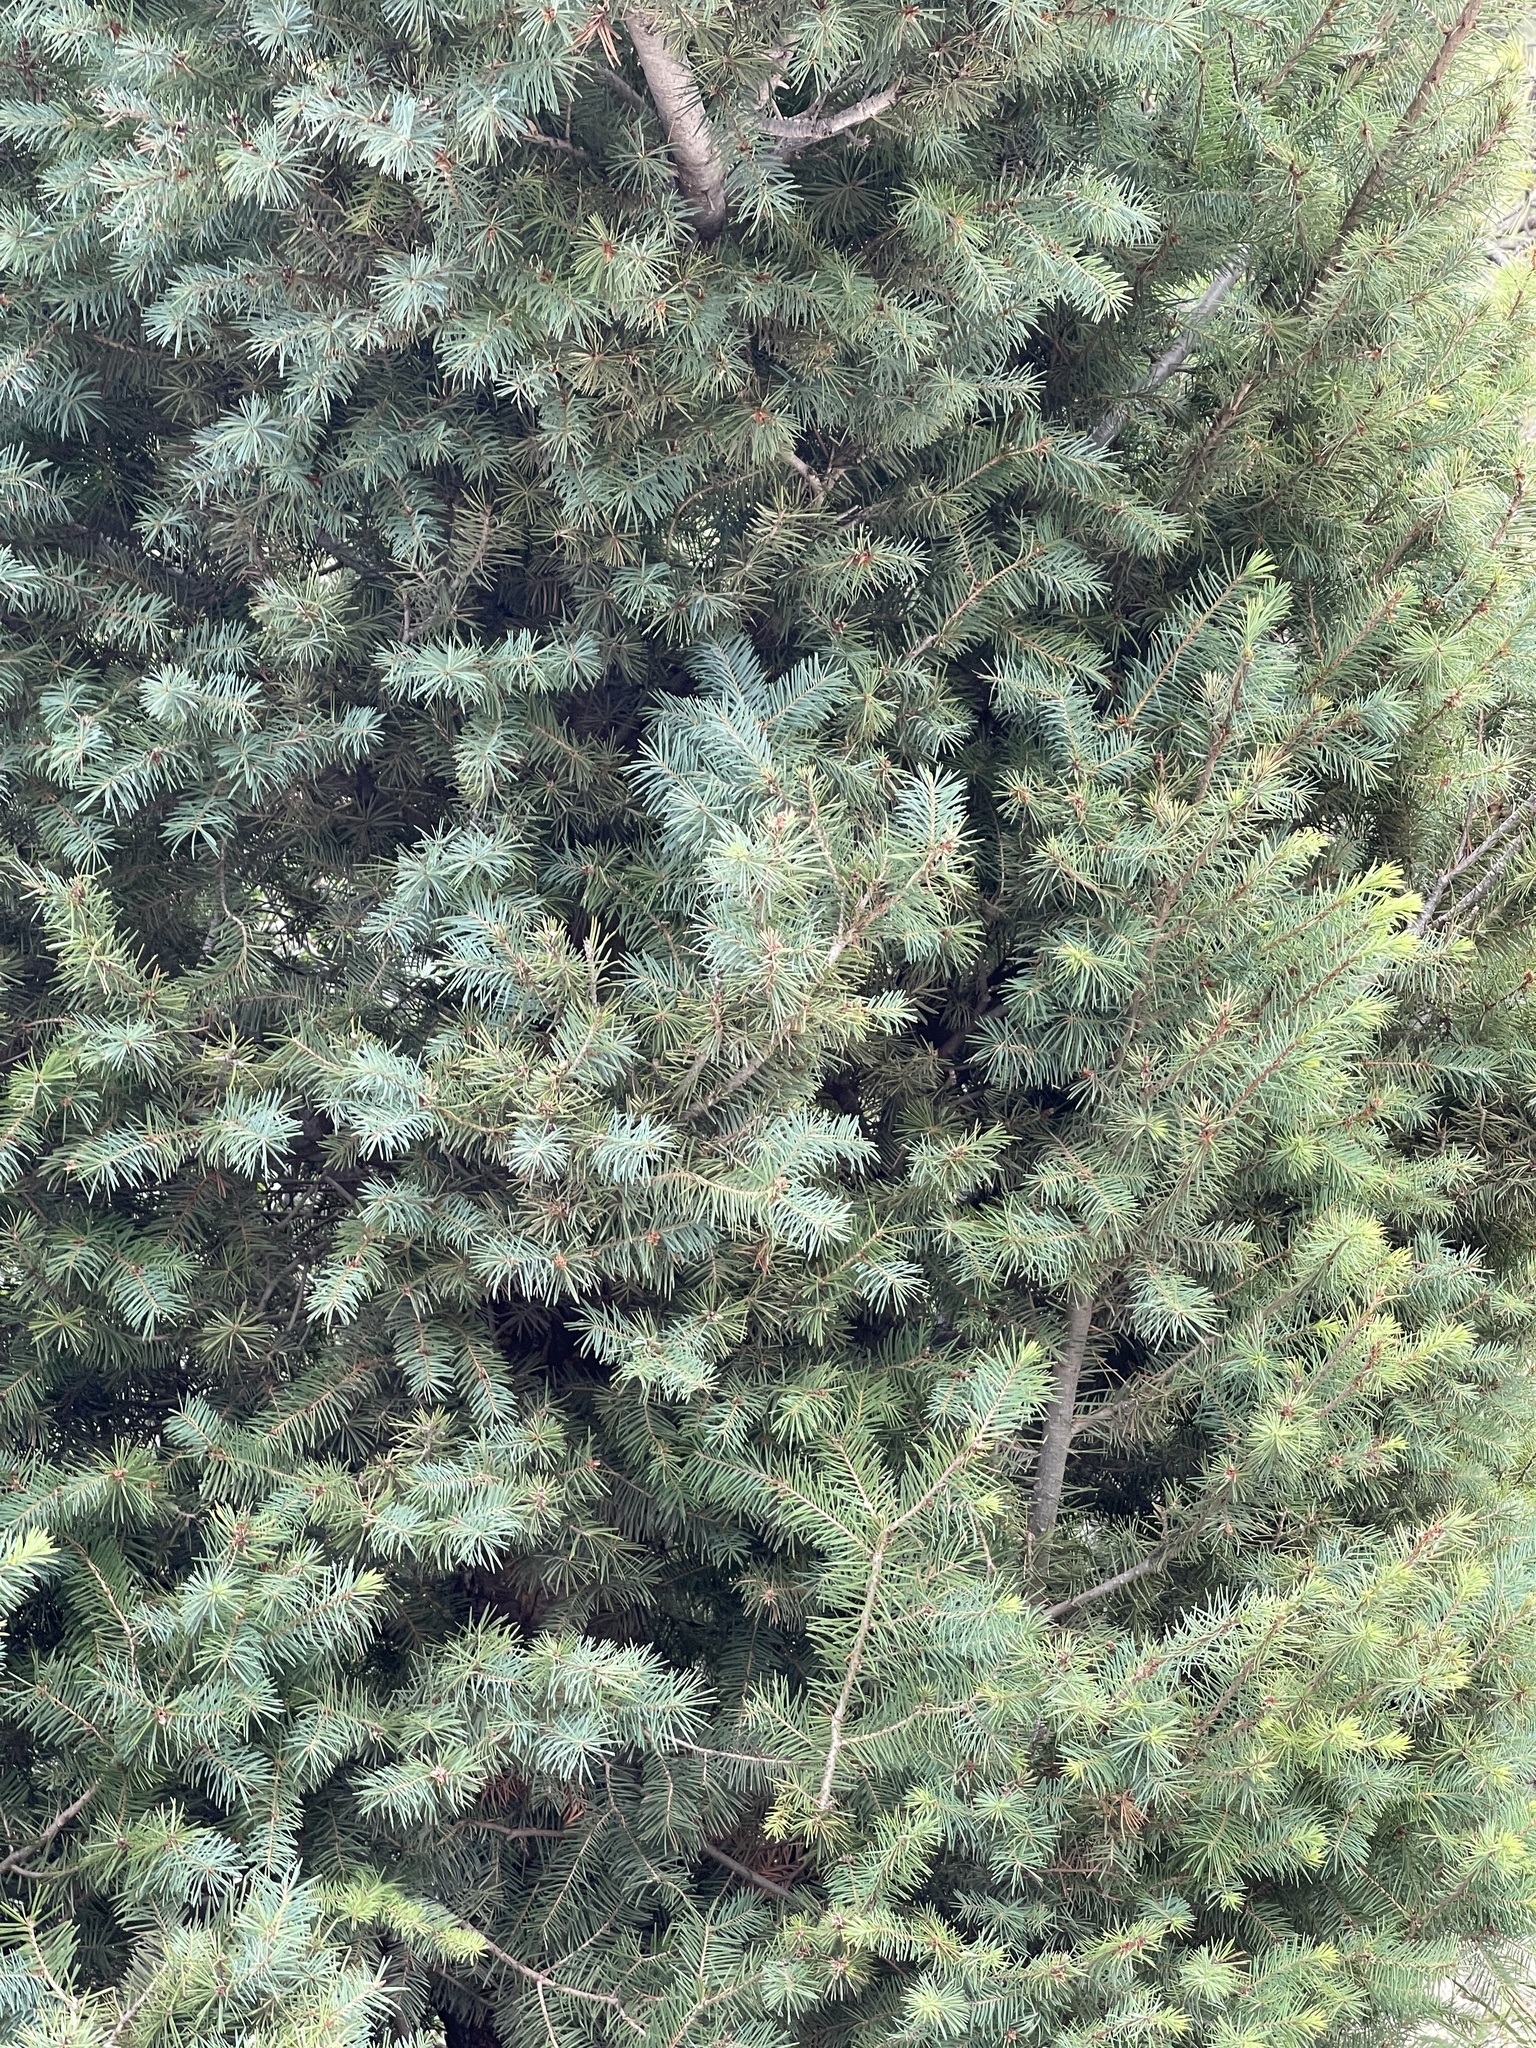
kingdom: Plantae
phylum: Tracheophyta
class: Pinopsida
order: Pinales
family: Pinaceae
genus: Pseudotsuga
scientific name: Pseudotsuga menziesii
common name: Douglas fir
